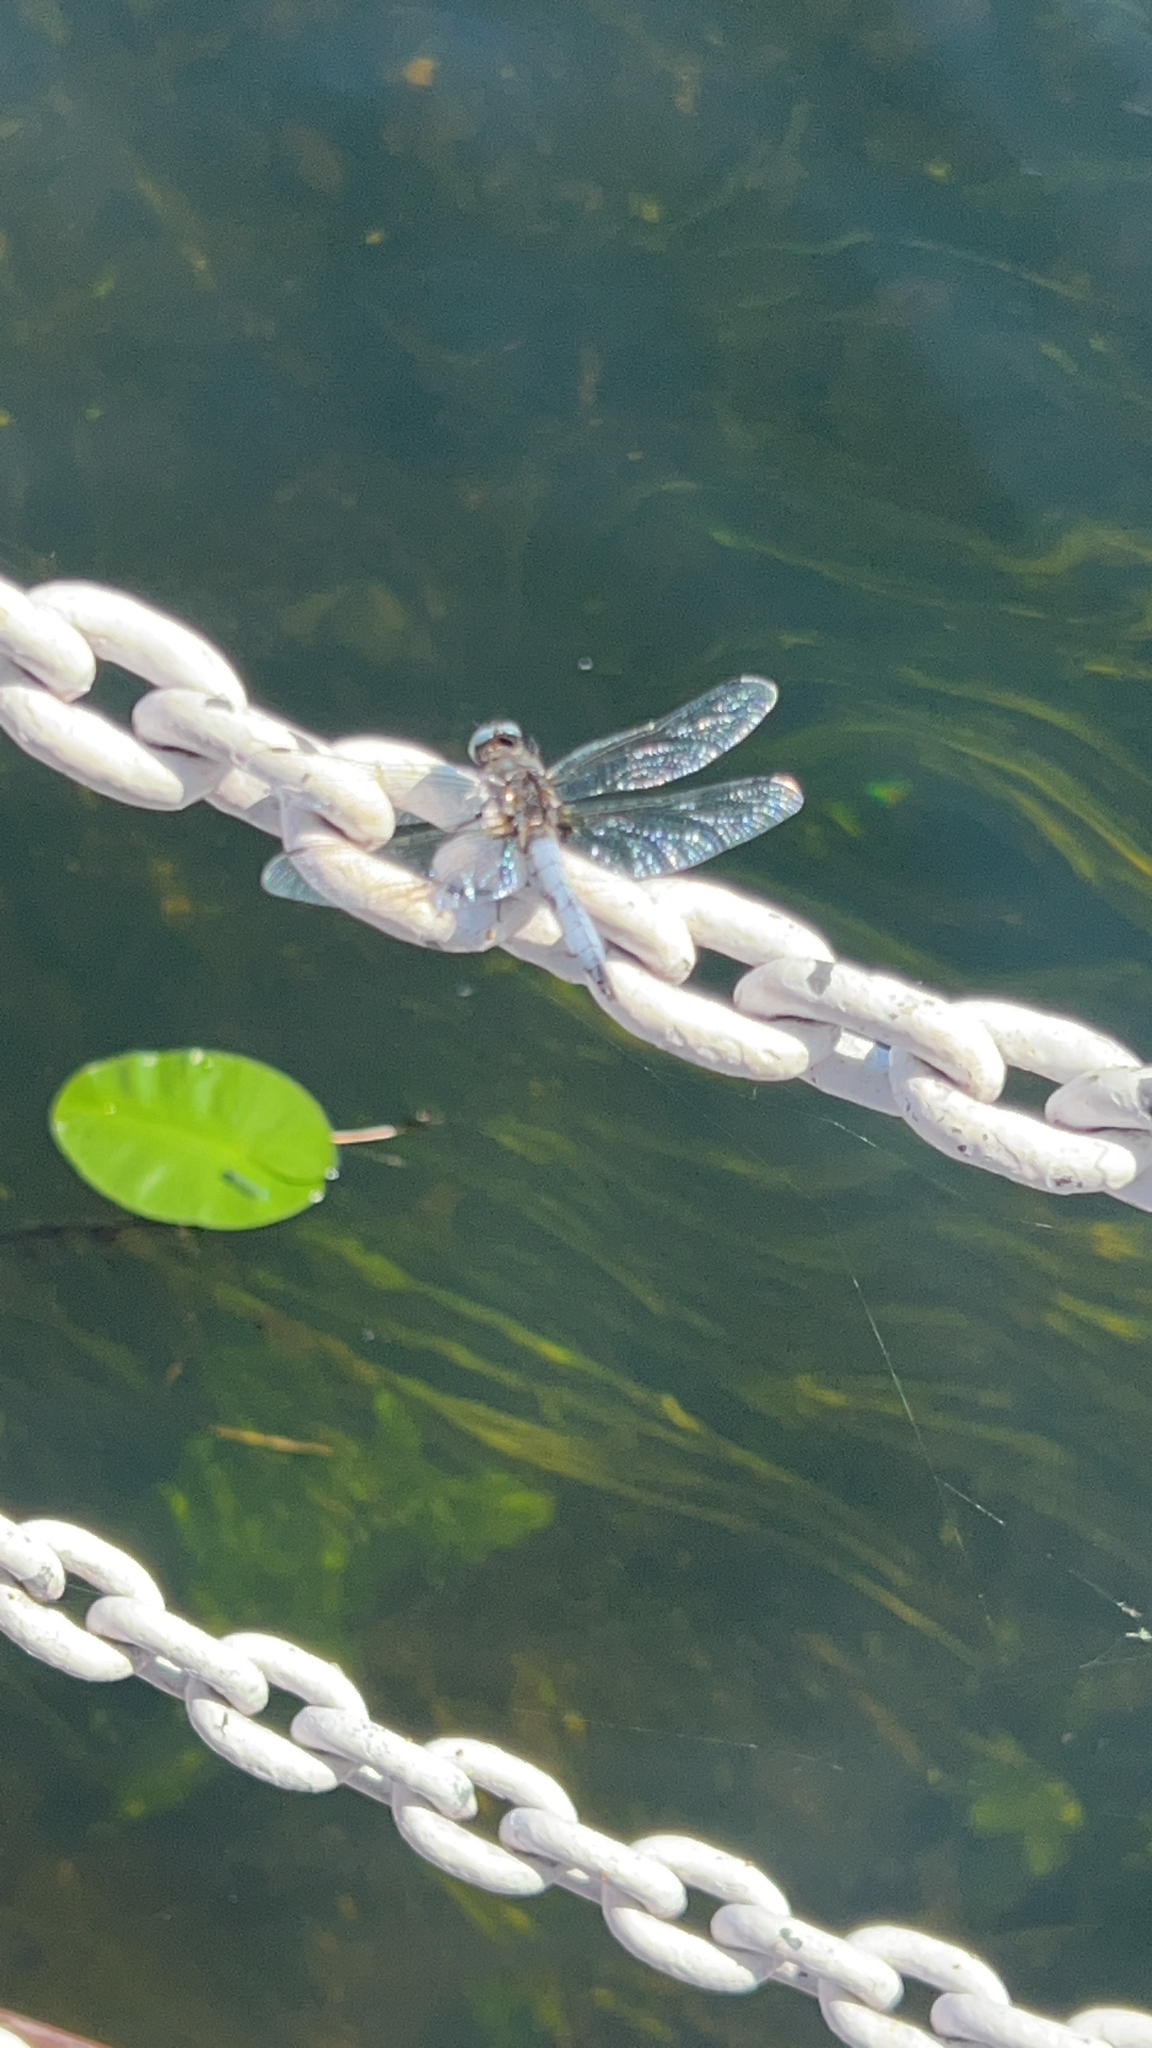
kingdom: Animalia
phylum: Arthropoda
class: Insecta
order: Odonata
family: Libellulidae
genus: Libellula
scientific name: Libellula fulva
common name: Blue chaser
